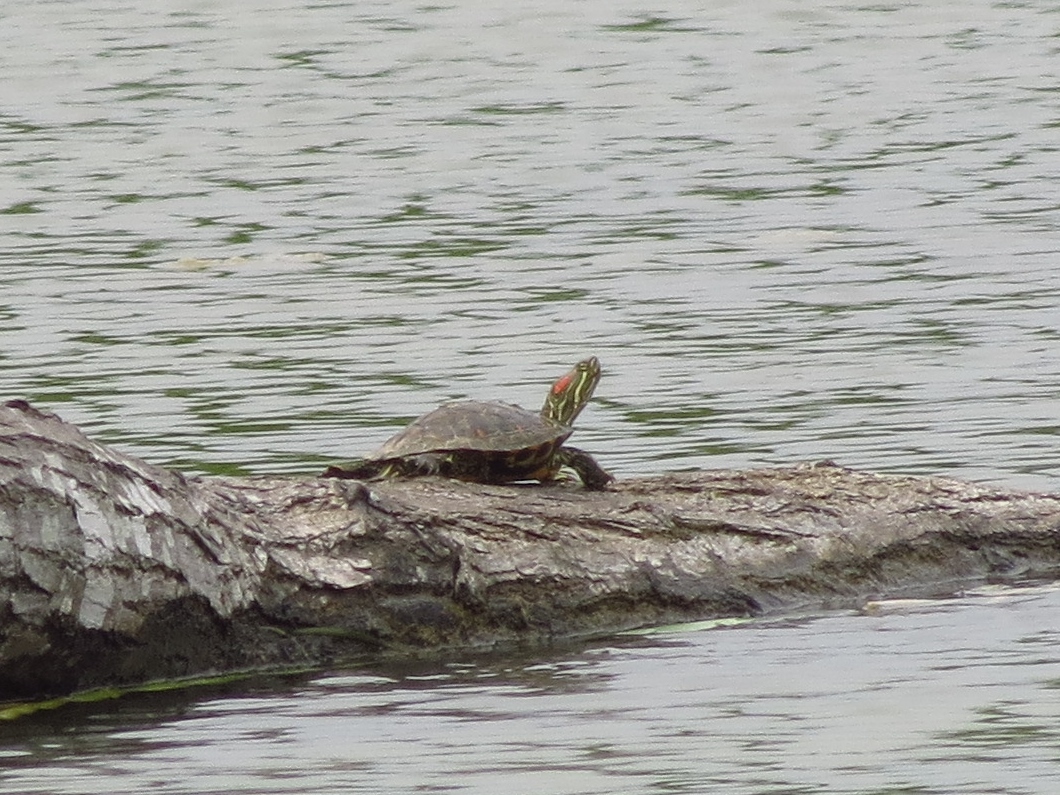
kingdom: Animalia
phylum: Chordata
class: Testudines
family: Emydidae
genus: Trachemys
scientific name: Trachemys scripta
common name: Slider
